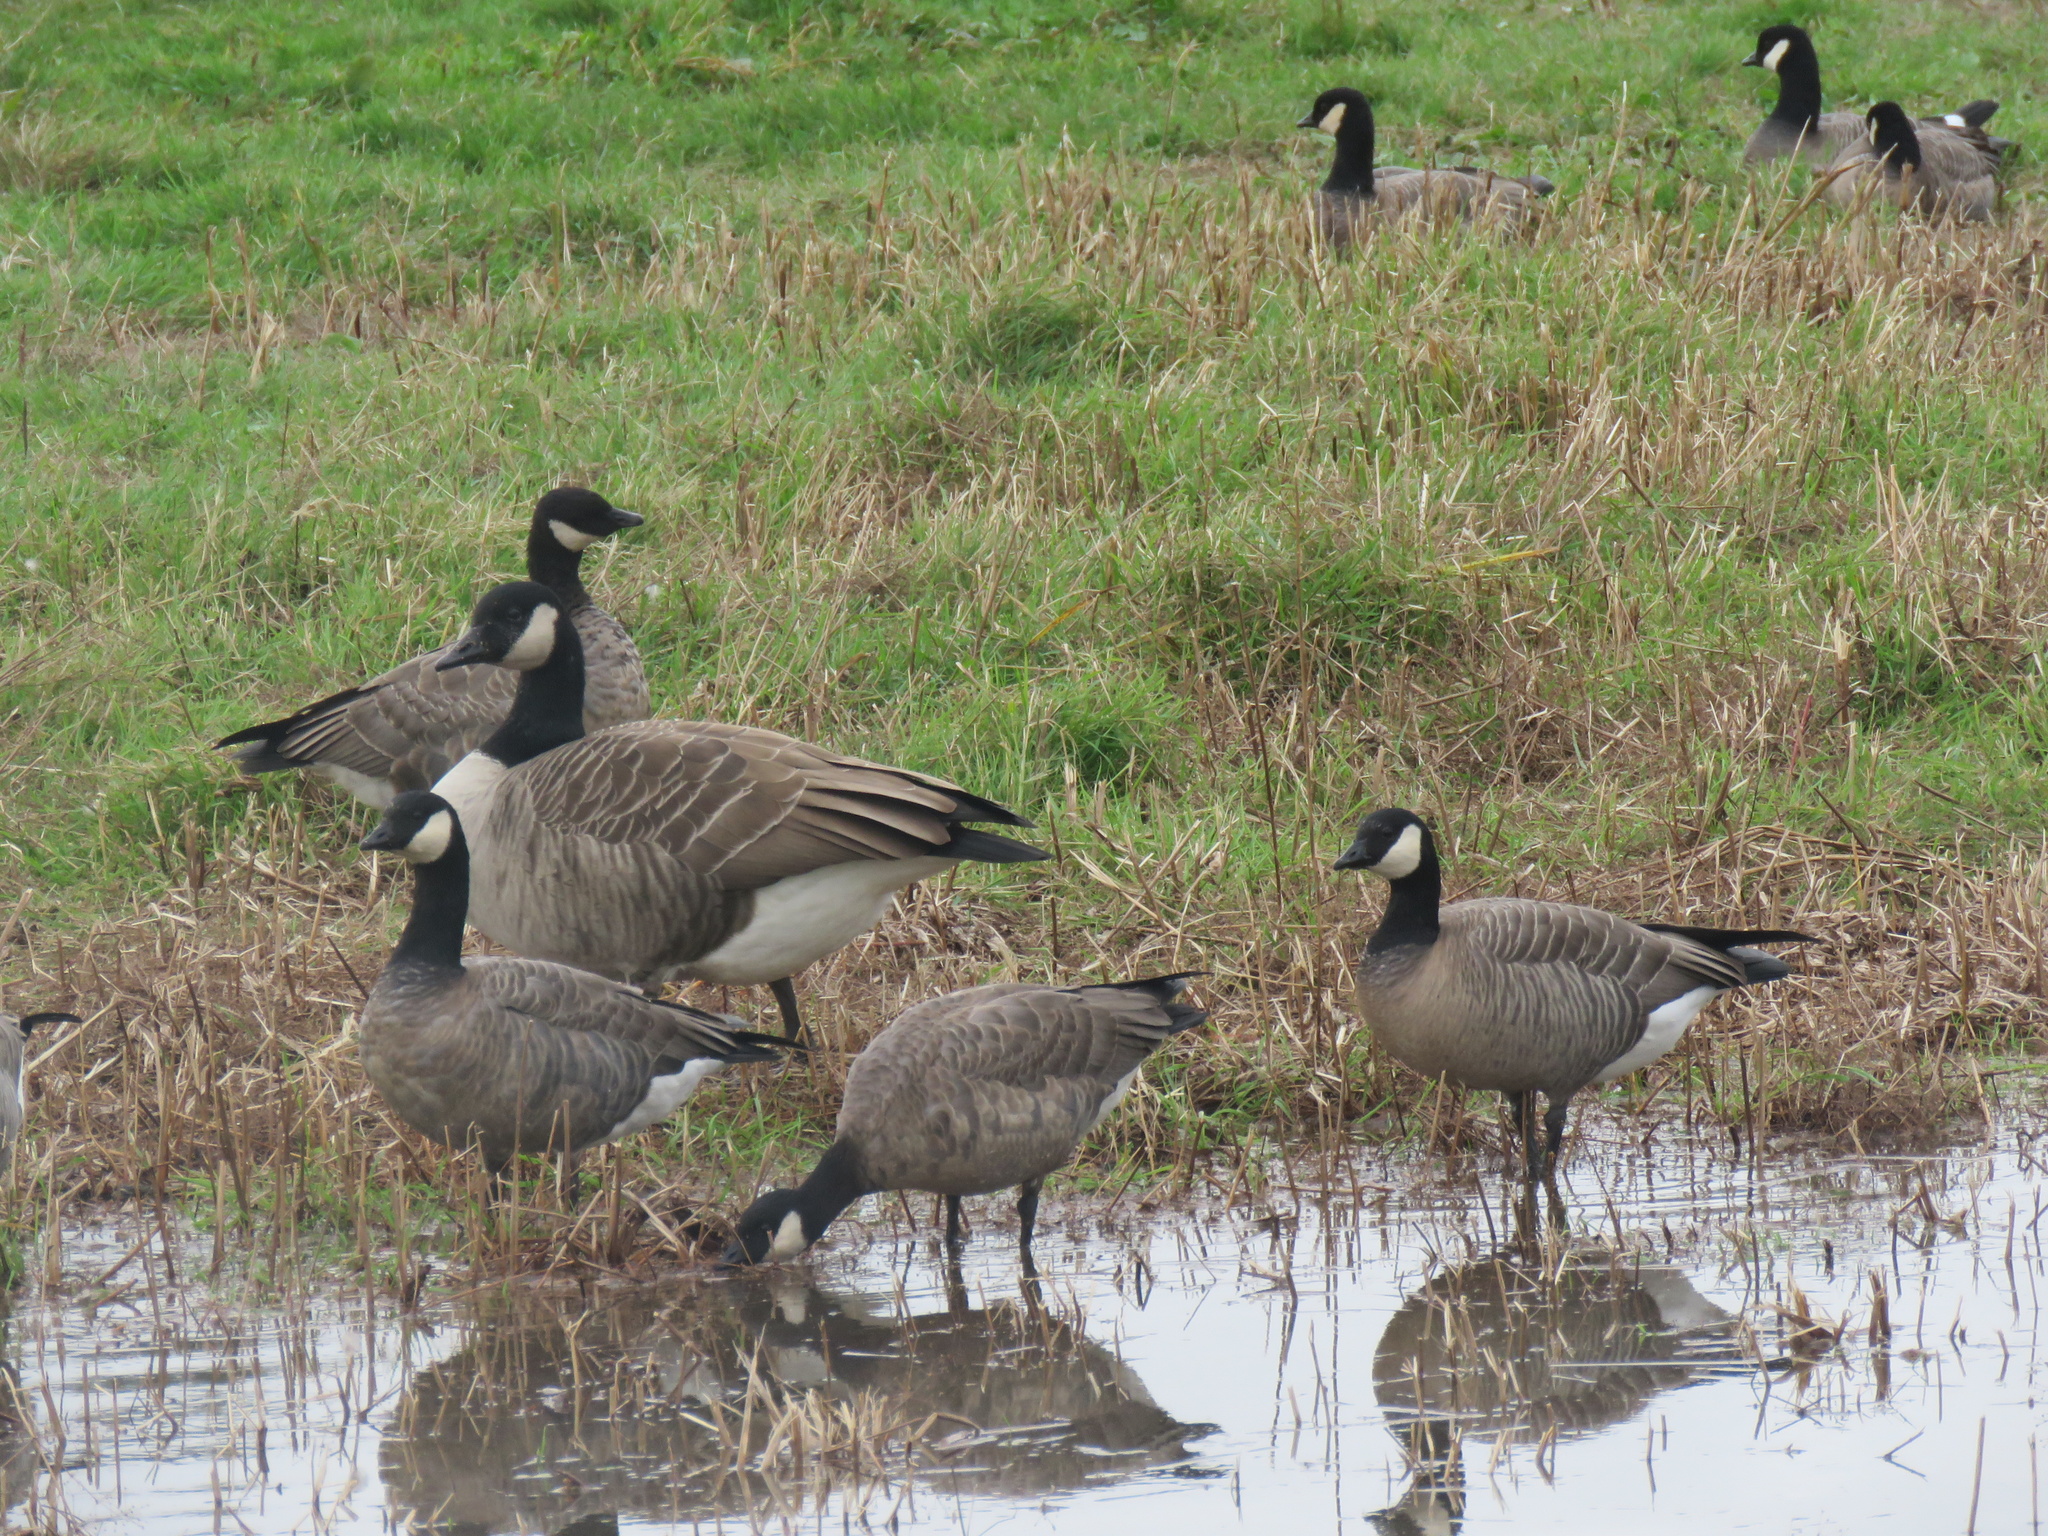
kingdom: Animalia
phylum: Chordata
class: Aves
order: Anseriformes
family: Anatidae
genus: Branta
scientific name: Branta hutchinsii
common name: Cackling goose
